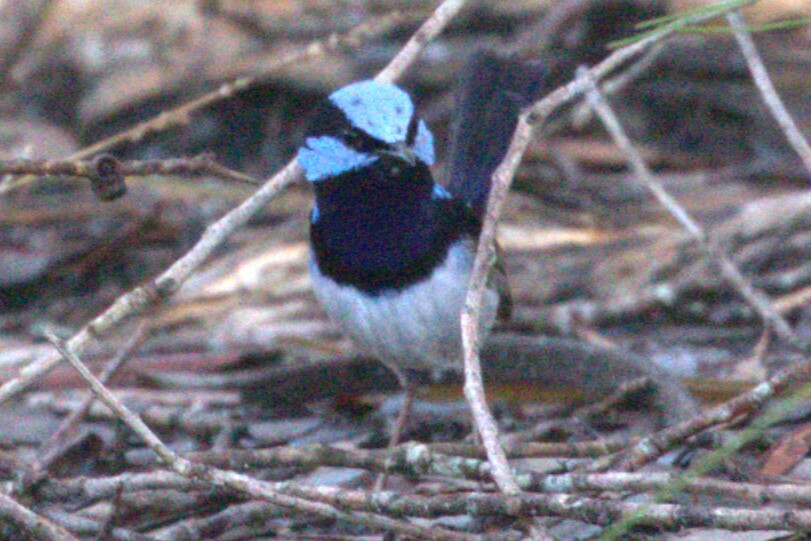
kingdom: Animalia
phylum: Chordata
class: Aves
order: Passeriformes
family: Maluridae
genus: Malurus
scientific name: Malurus cyaneus
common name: Superb fairywren
